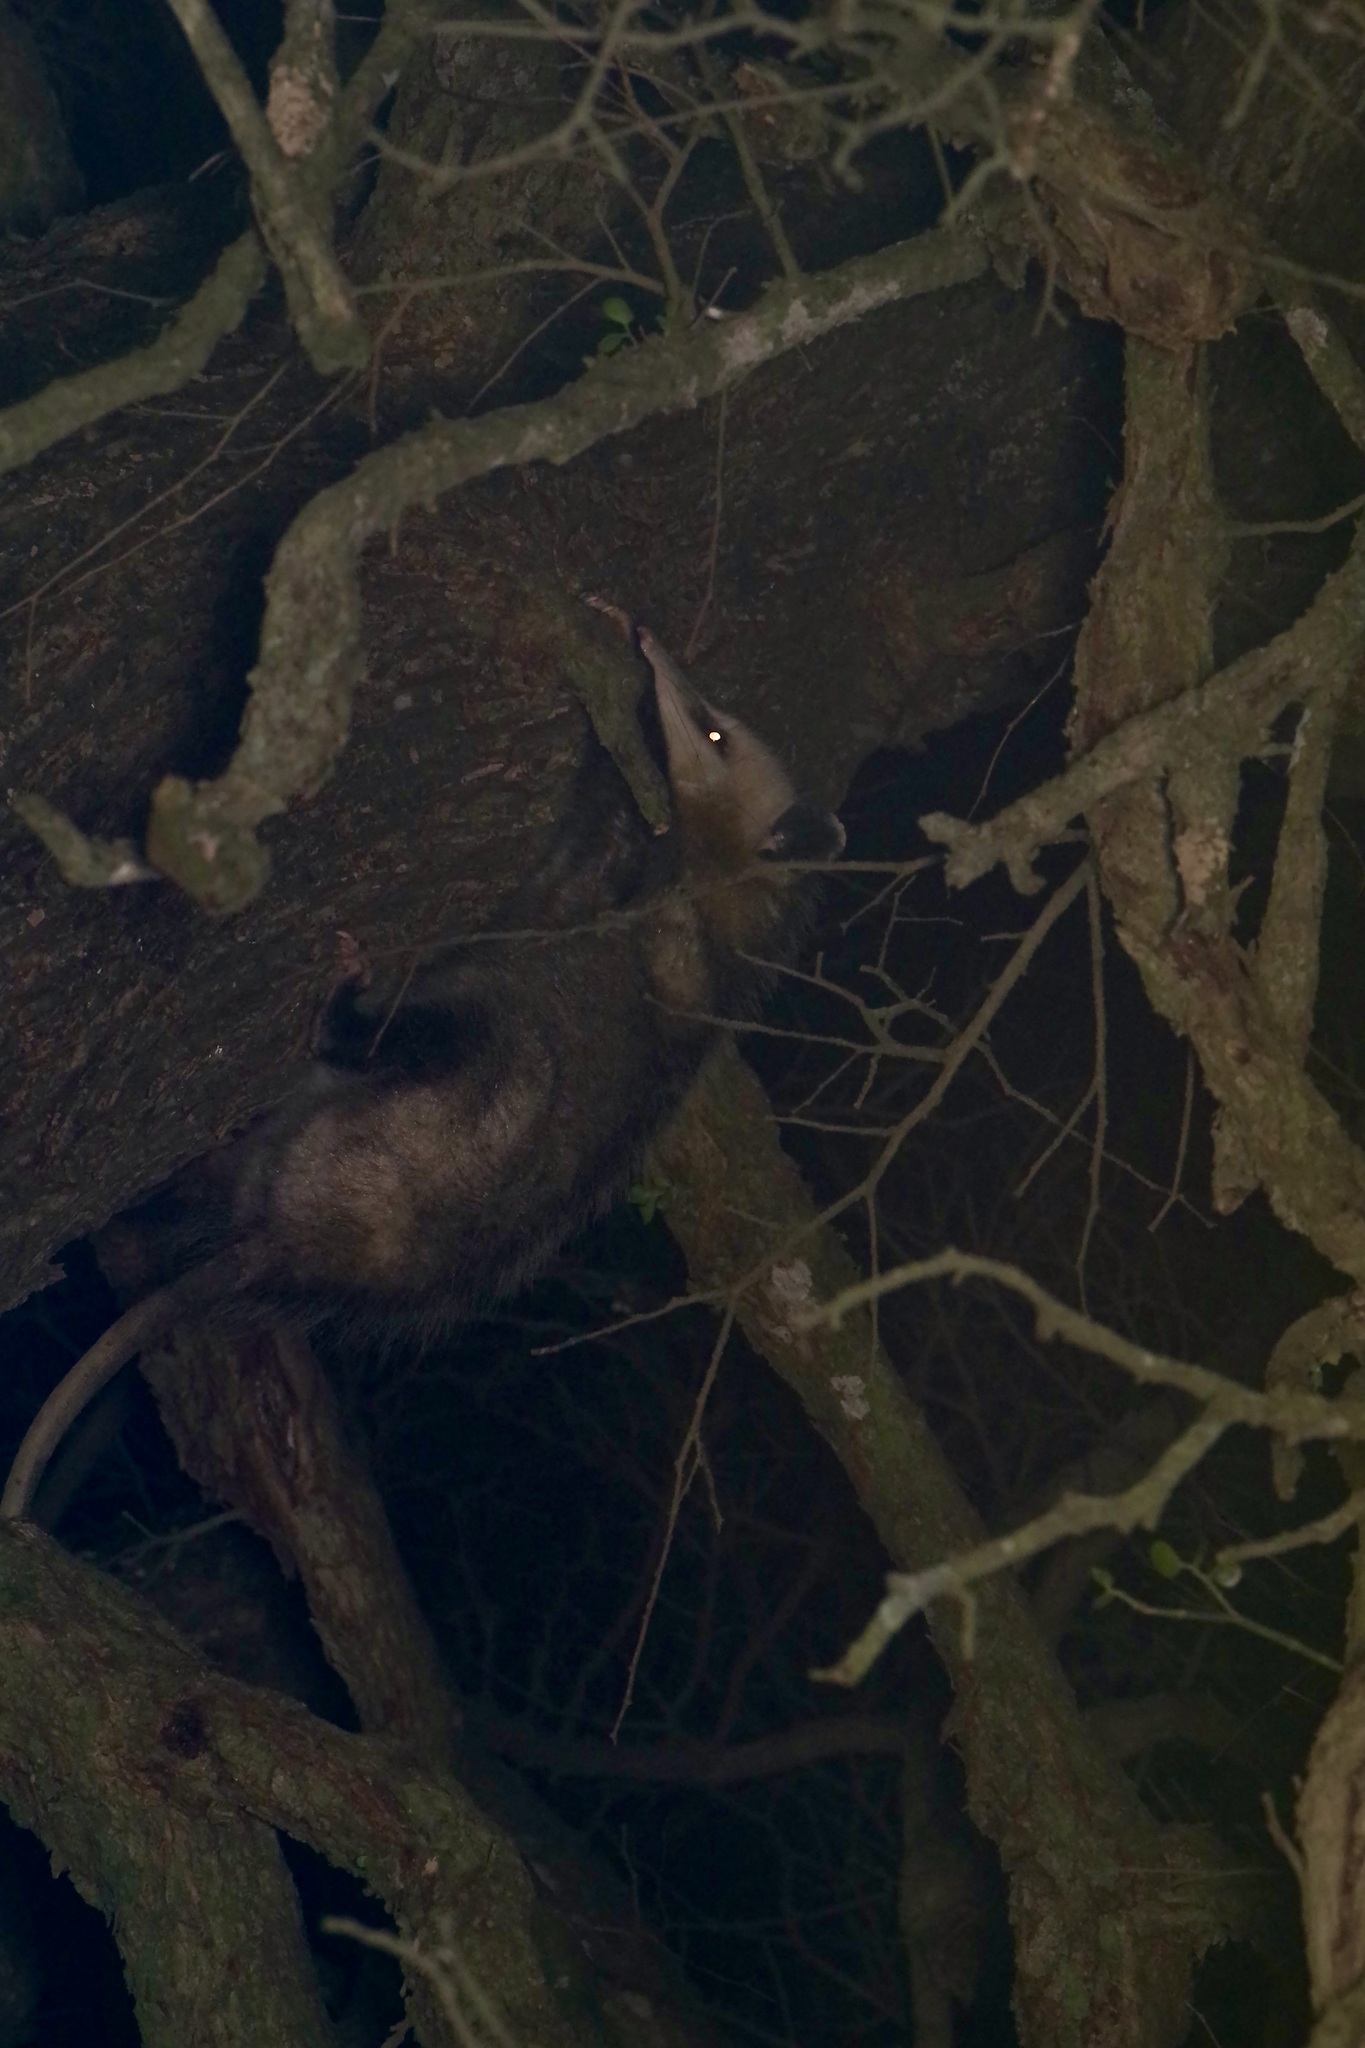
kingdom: Animalia
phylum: Chordata
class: Mammalia
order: Didelphimorphia
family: Didelphidae
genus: Didelphis
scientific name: Didelphis virginiana
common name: Virginia opossum
